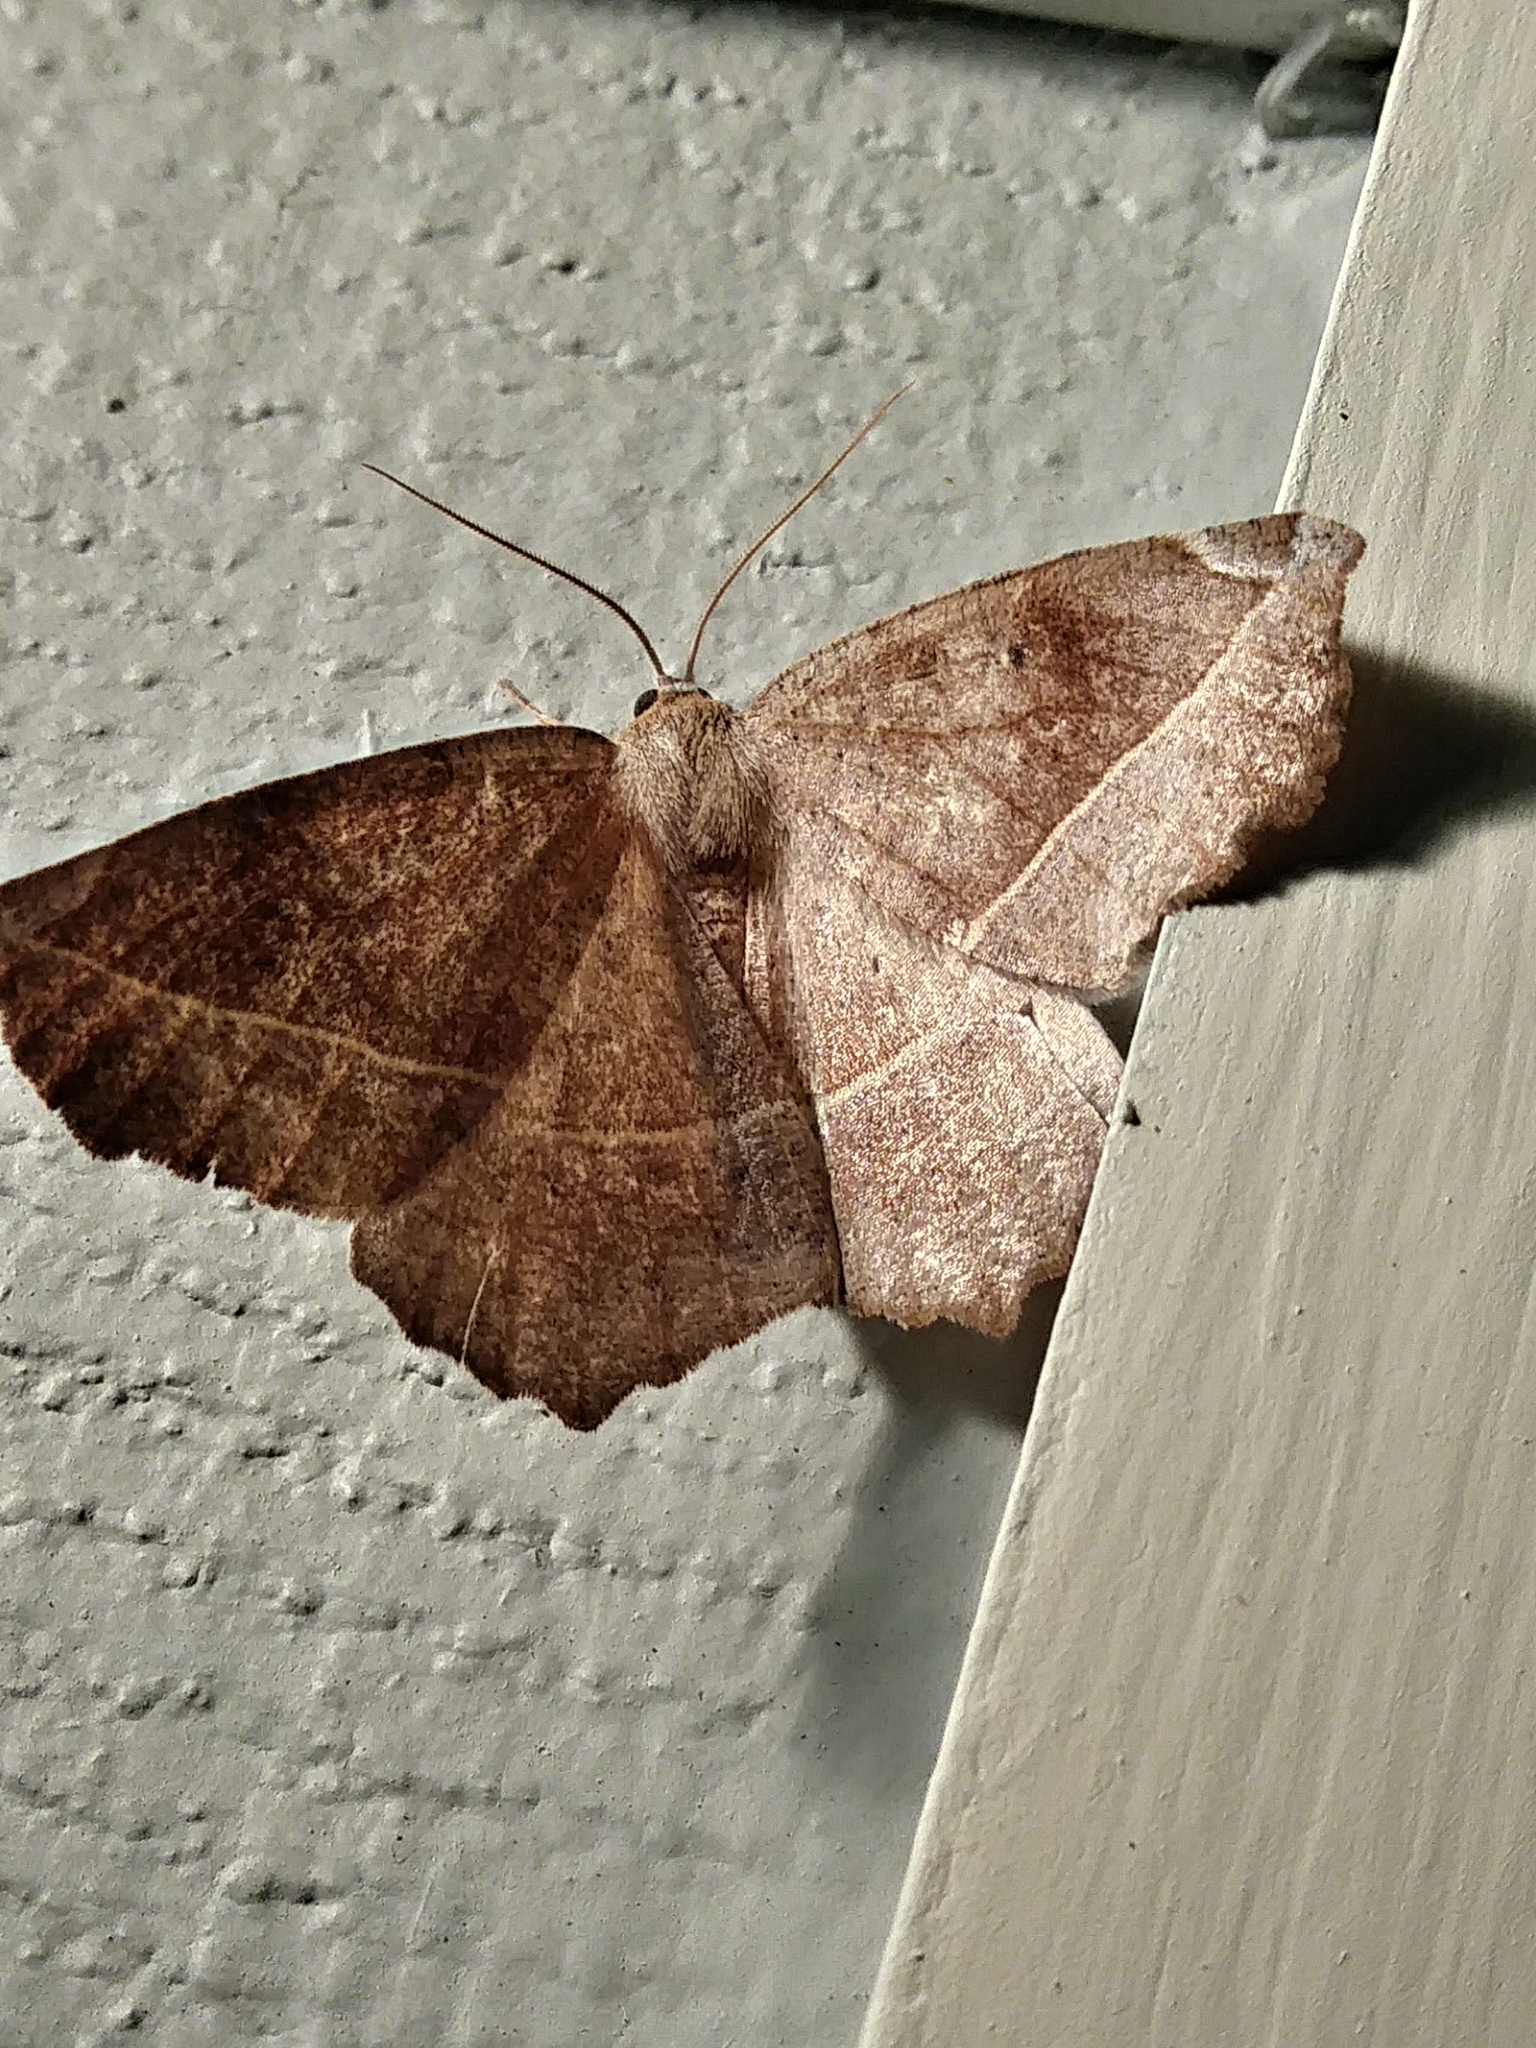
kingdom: Animalia
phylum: Arthropoda
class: Insecta
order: Lepidoptera
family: Geometridae
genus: Eutrapela
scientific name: Eutrapela clemataria
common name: Curved-toothed geometer
